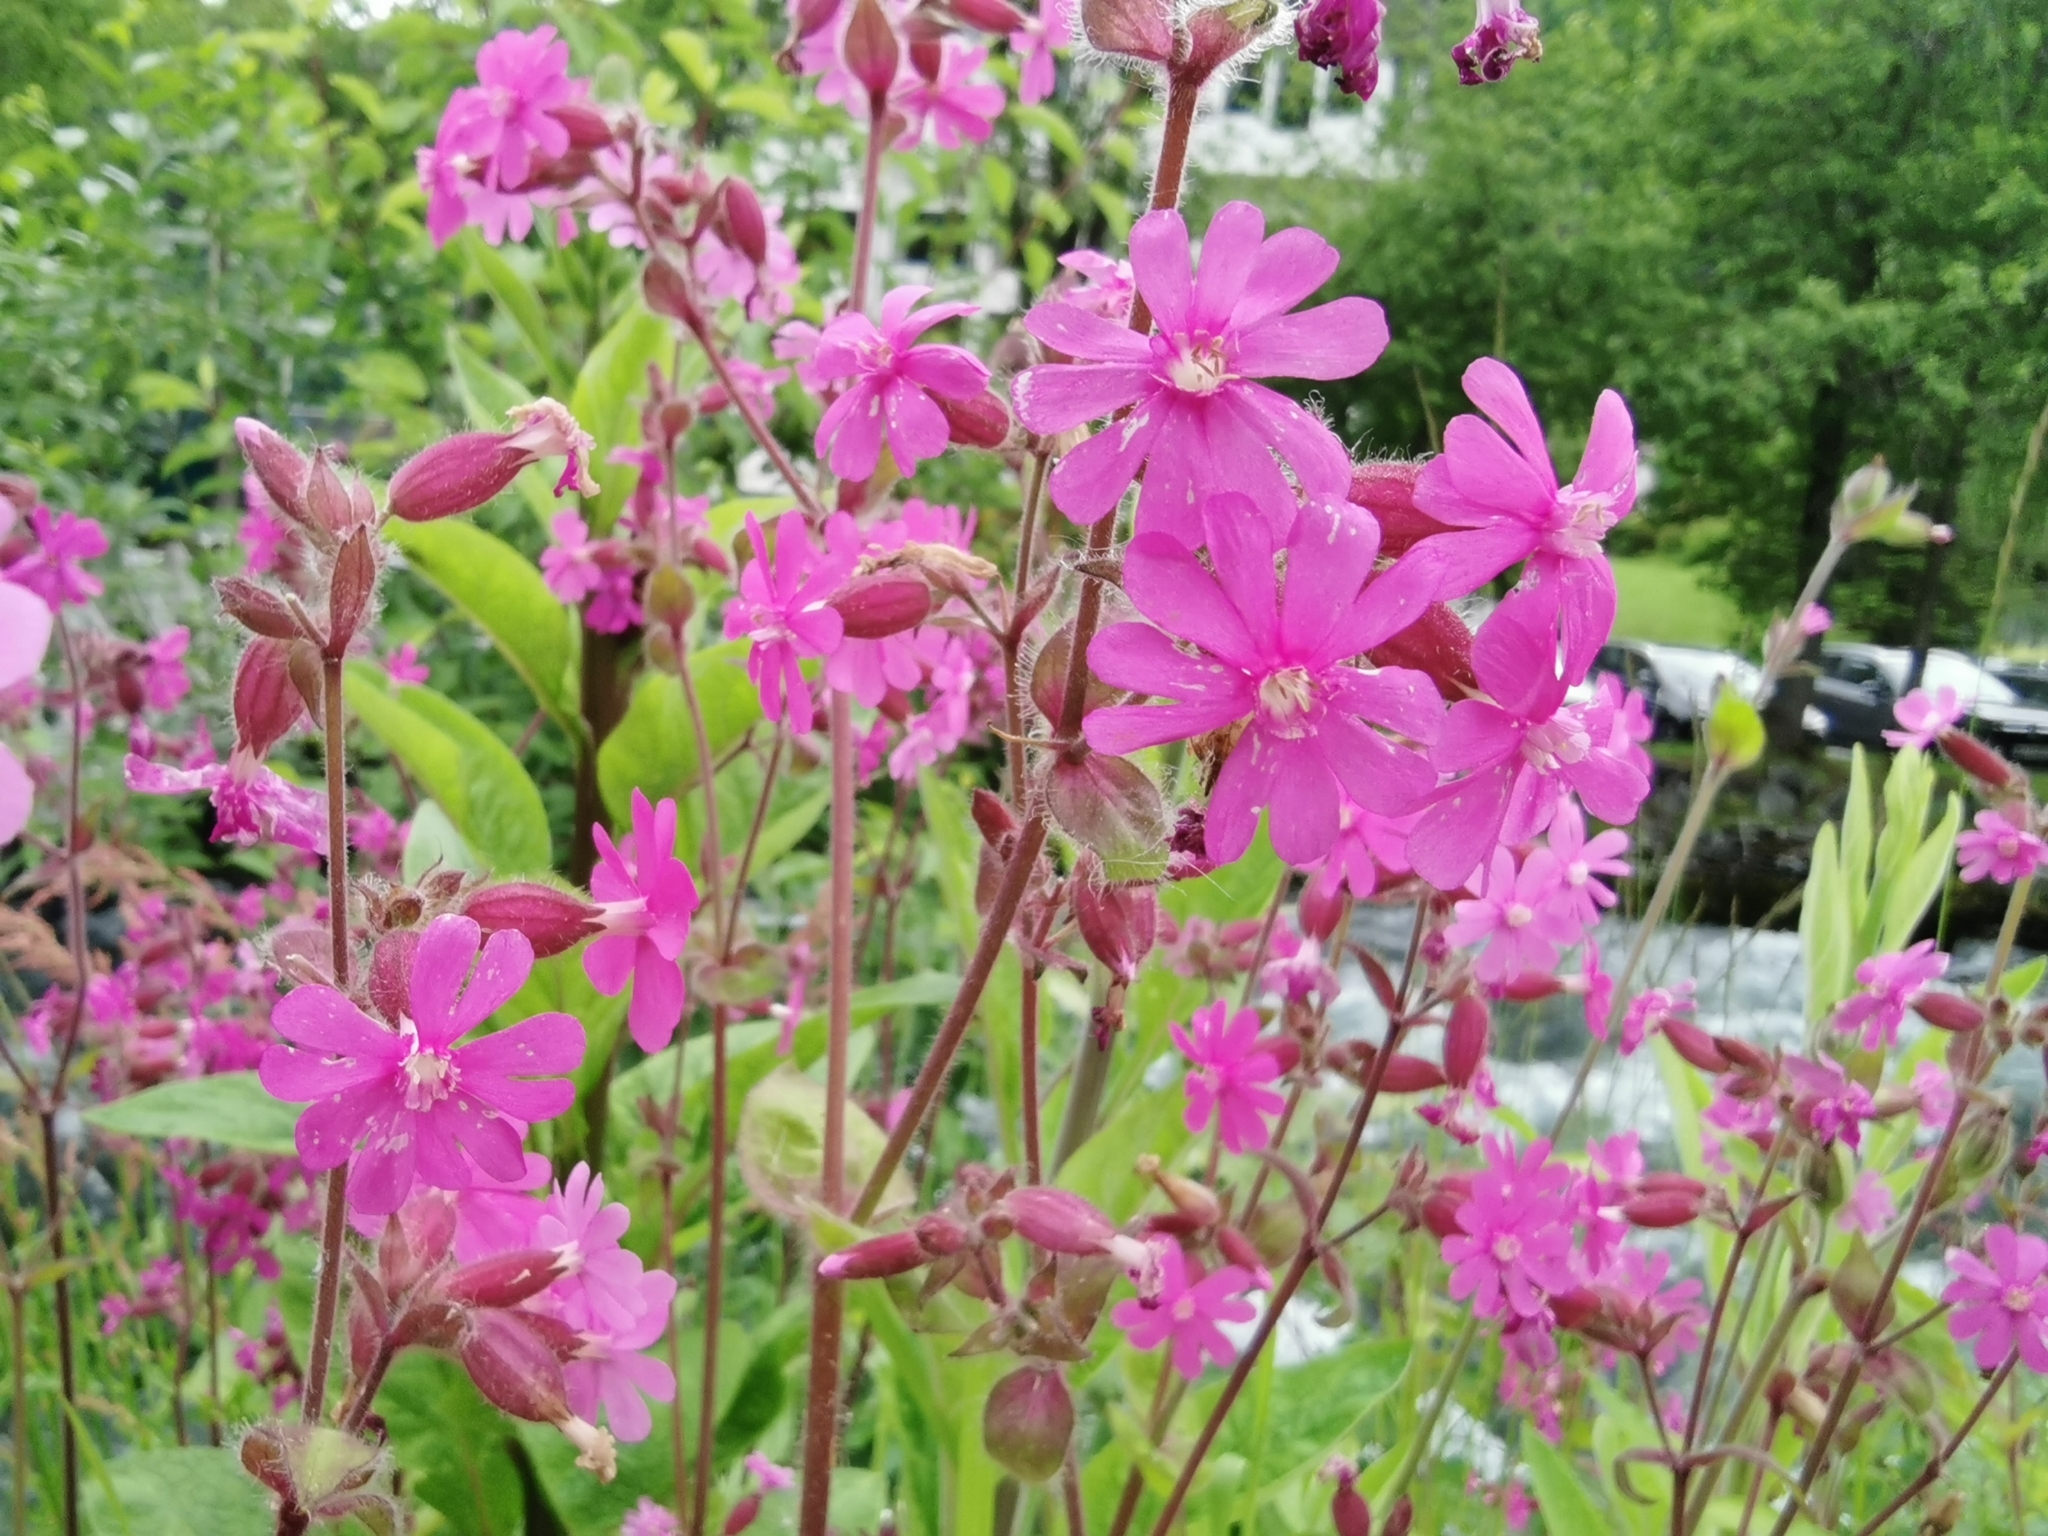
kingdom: Plantae
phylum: Tracheophyta
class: Magnoliopsida
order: Caryophyllales
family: Caryophyllaceae
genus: Silene
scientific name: Silene dioica
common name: Red campion
